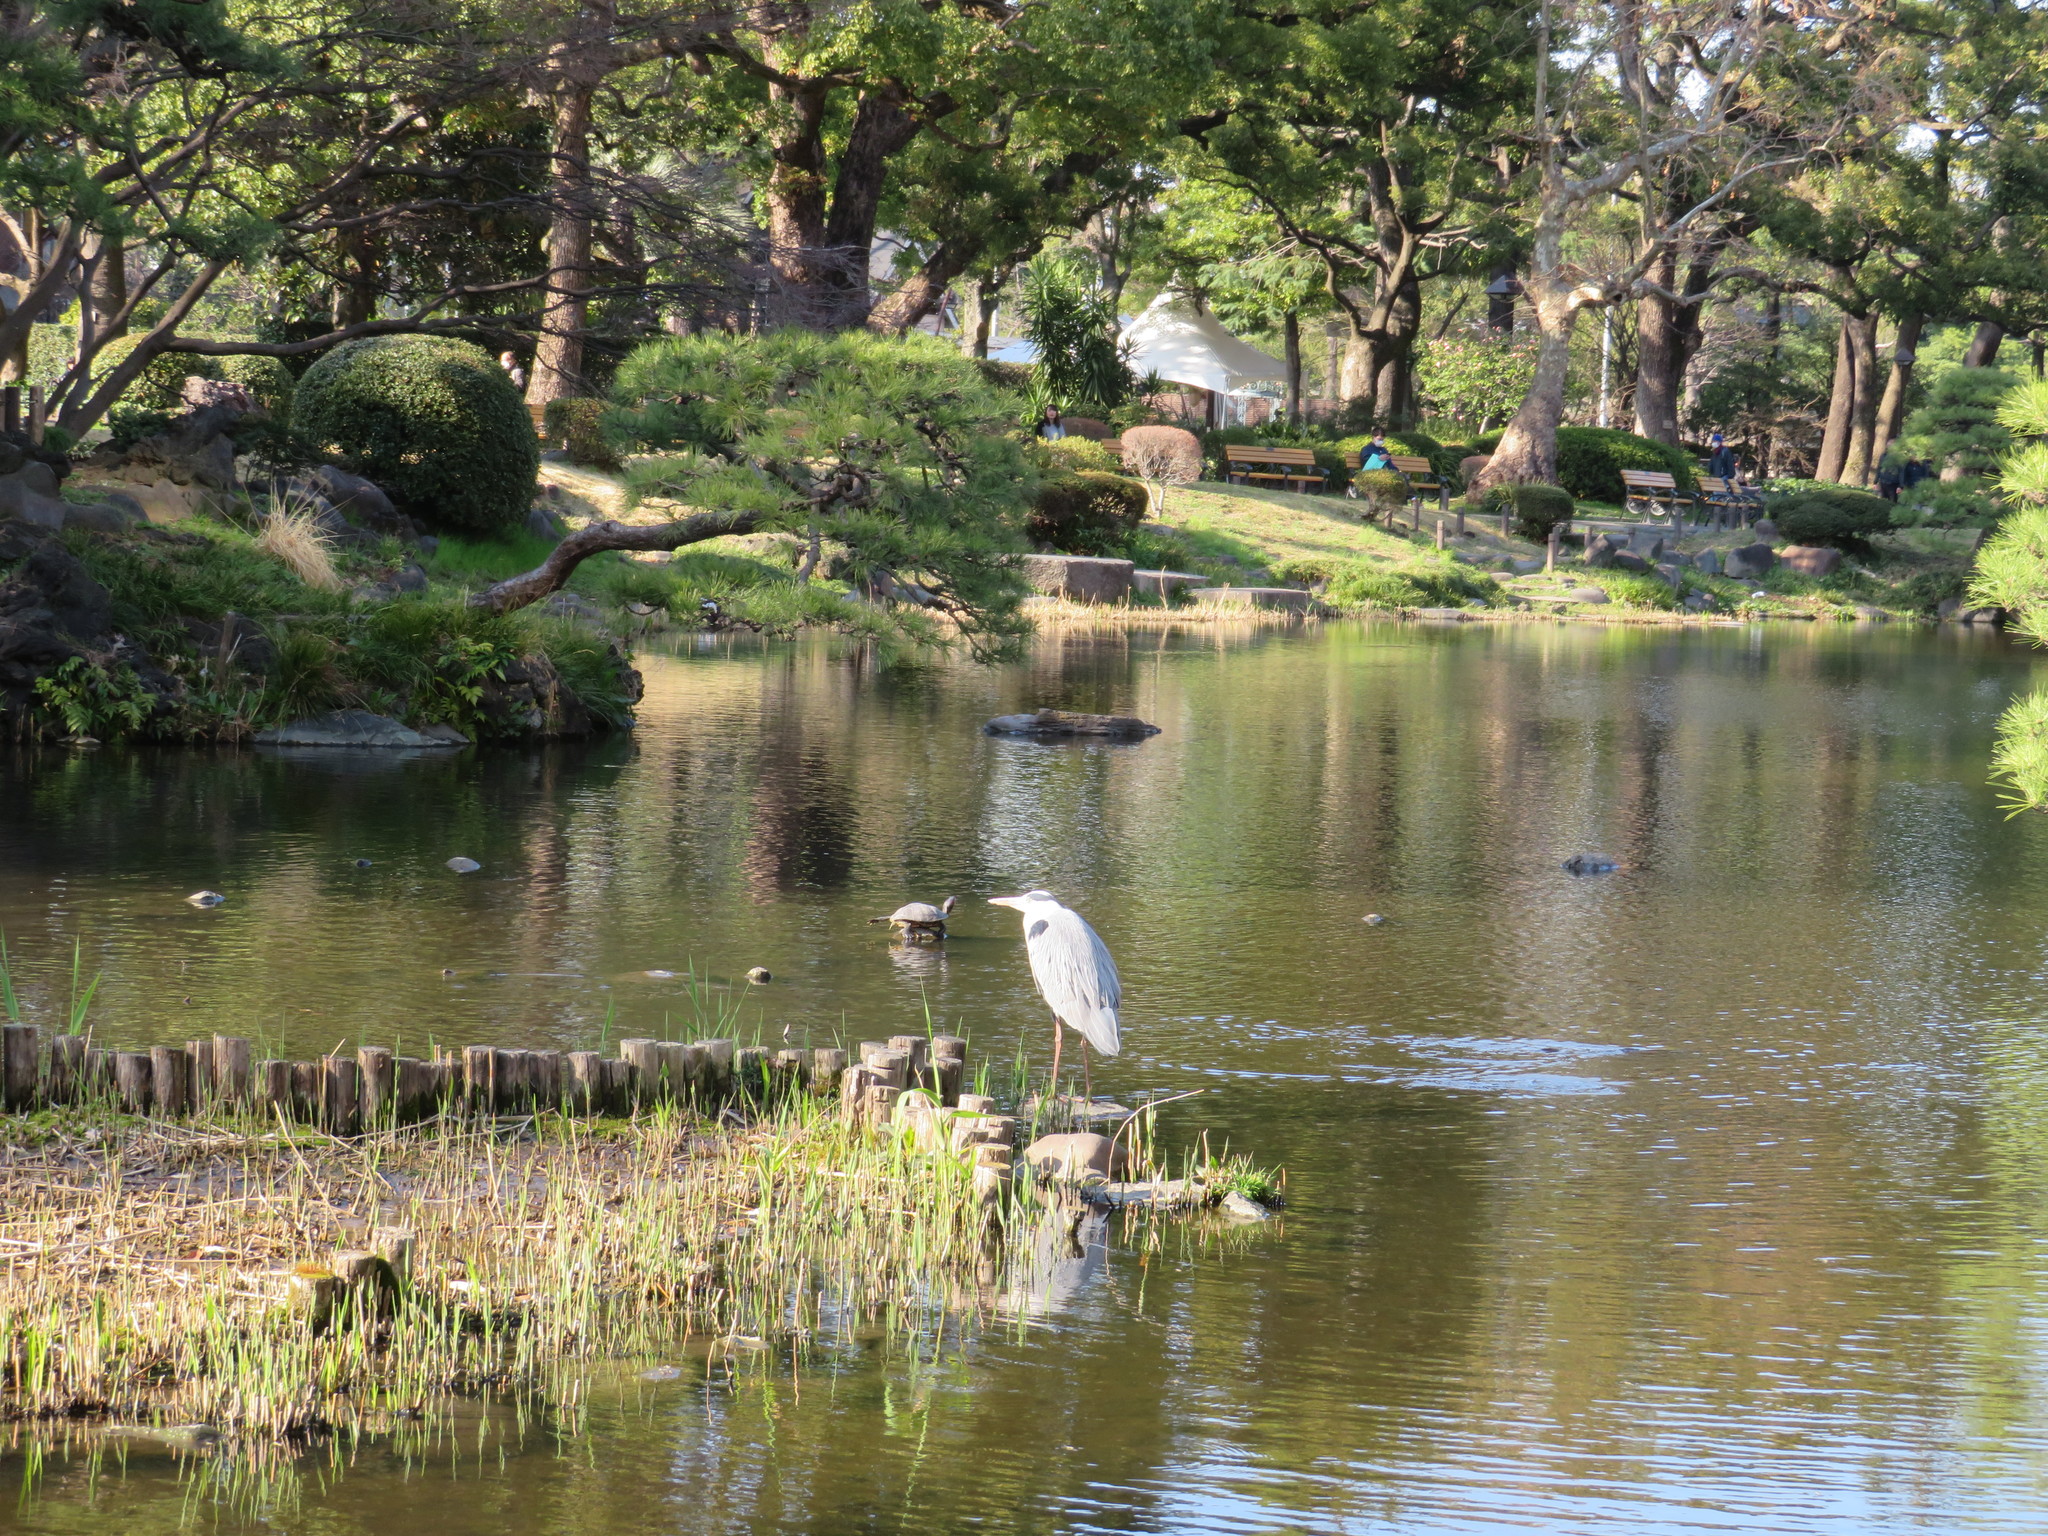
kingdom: Animalia
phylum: Chordata
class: Aves
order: Pelecaniformes
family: Ardeidae
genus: Ardea
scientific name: Ardea cinerea
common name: Grey heron
